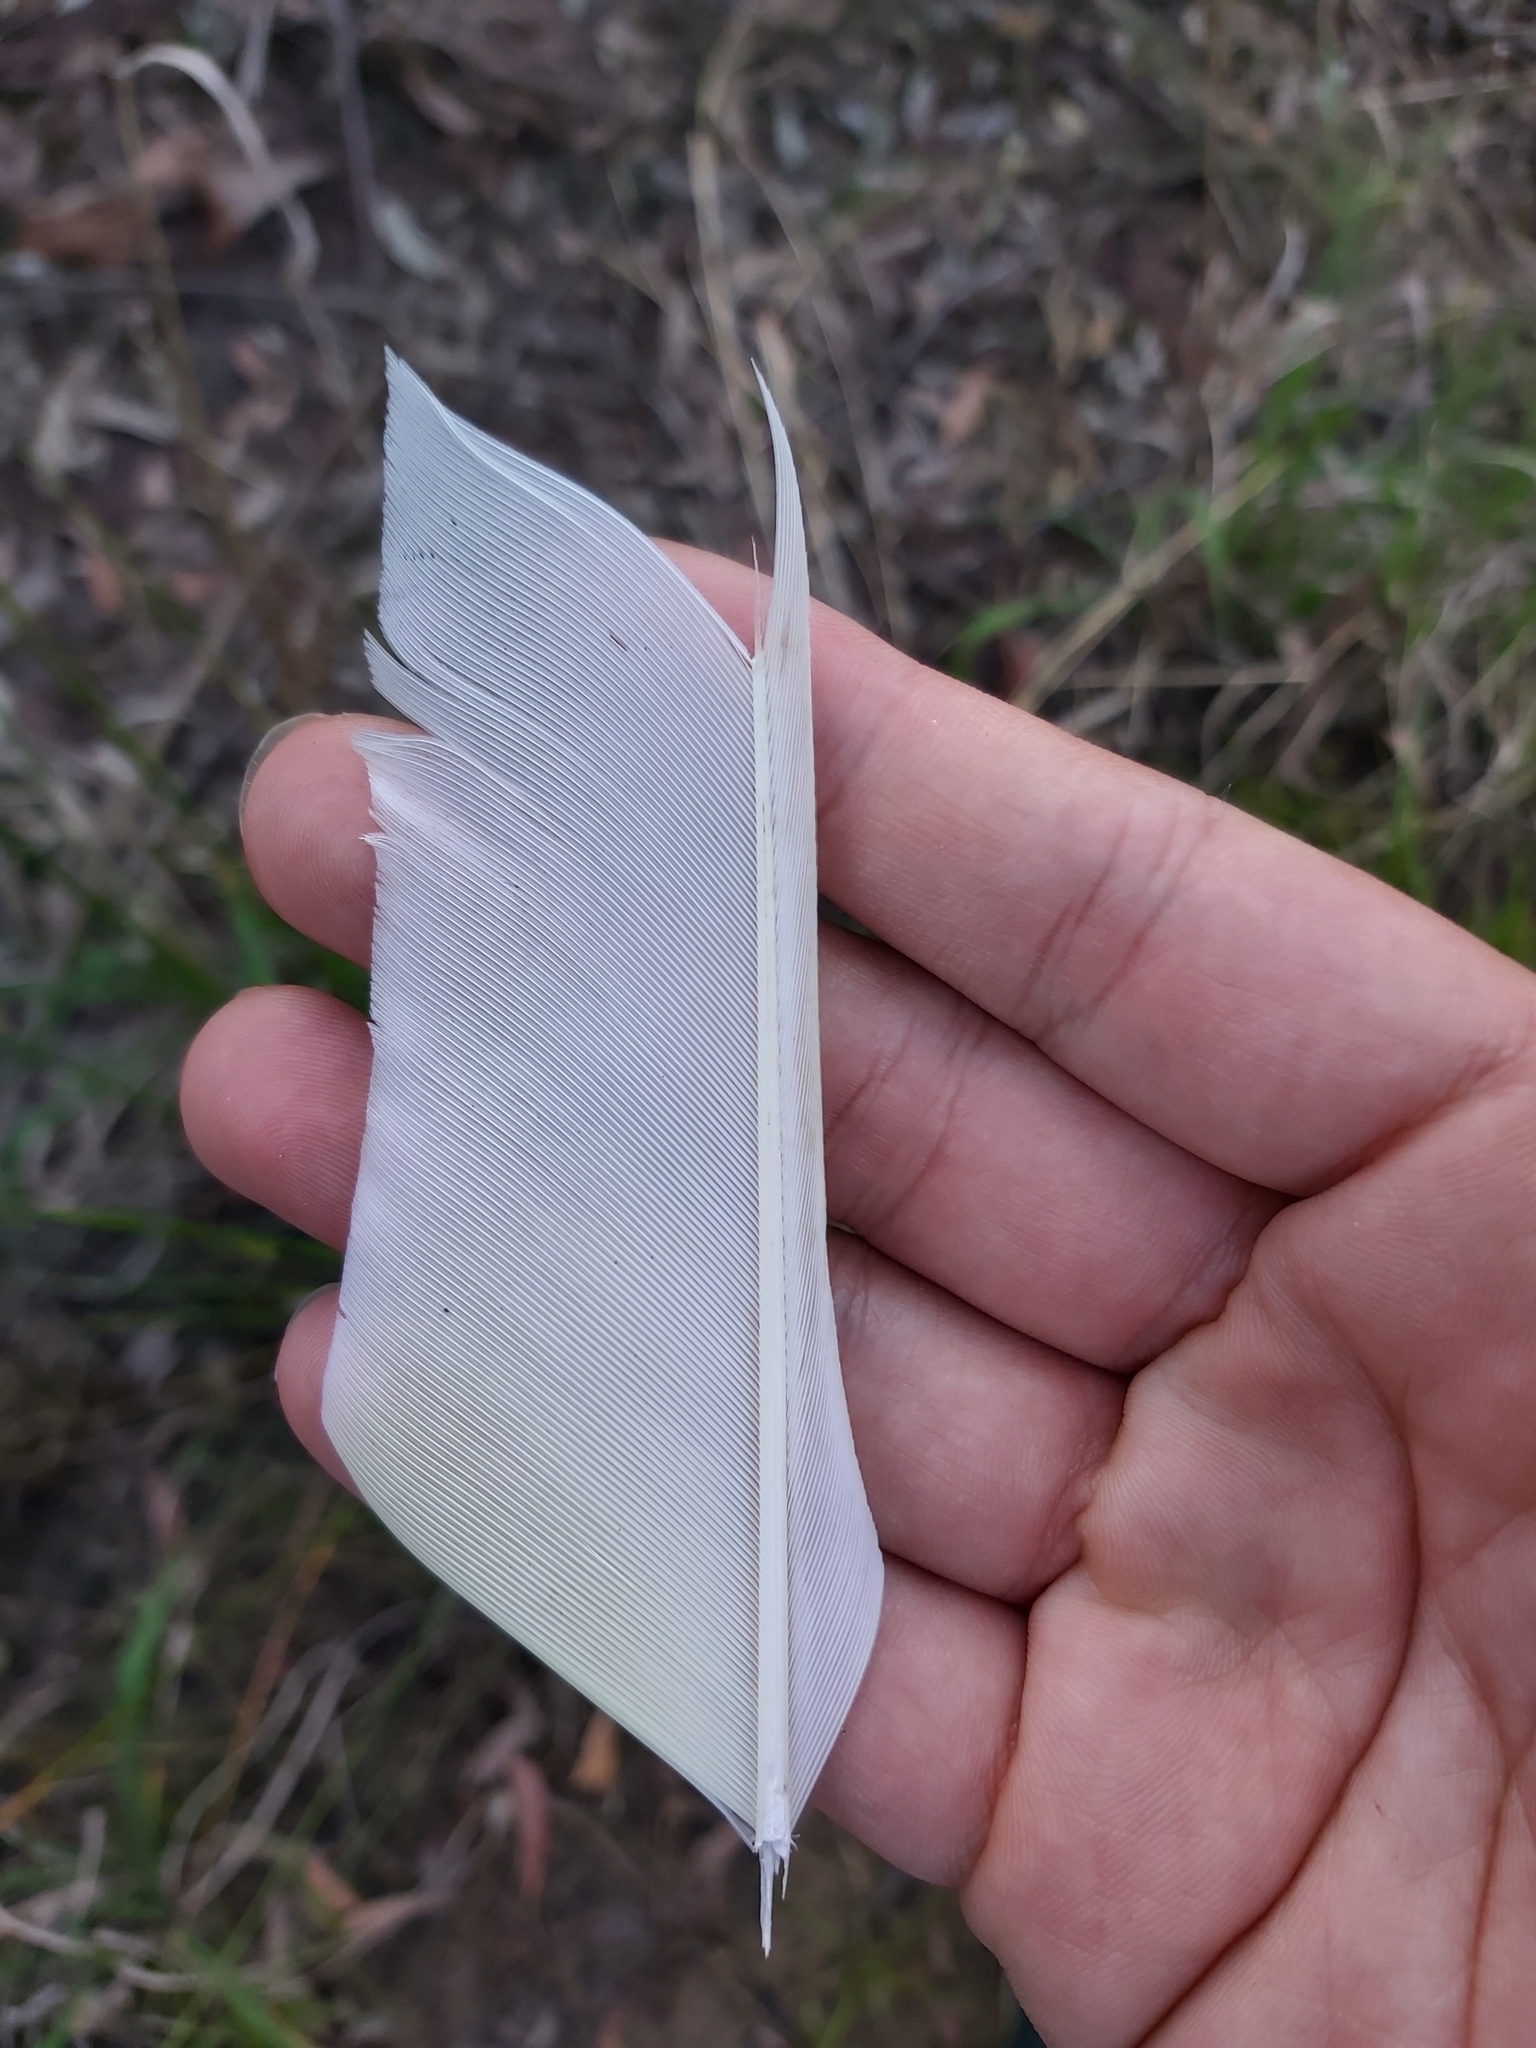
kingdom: Animalia
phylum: Chordata
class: Aves
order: Psittaciformes
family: Psittacidae
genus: Cacatua
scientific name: Cacatua galerita
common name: Sulphur-crested cockatoo
